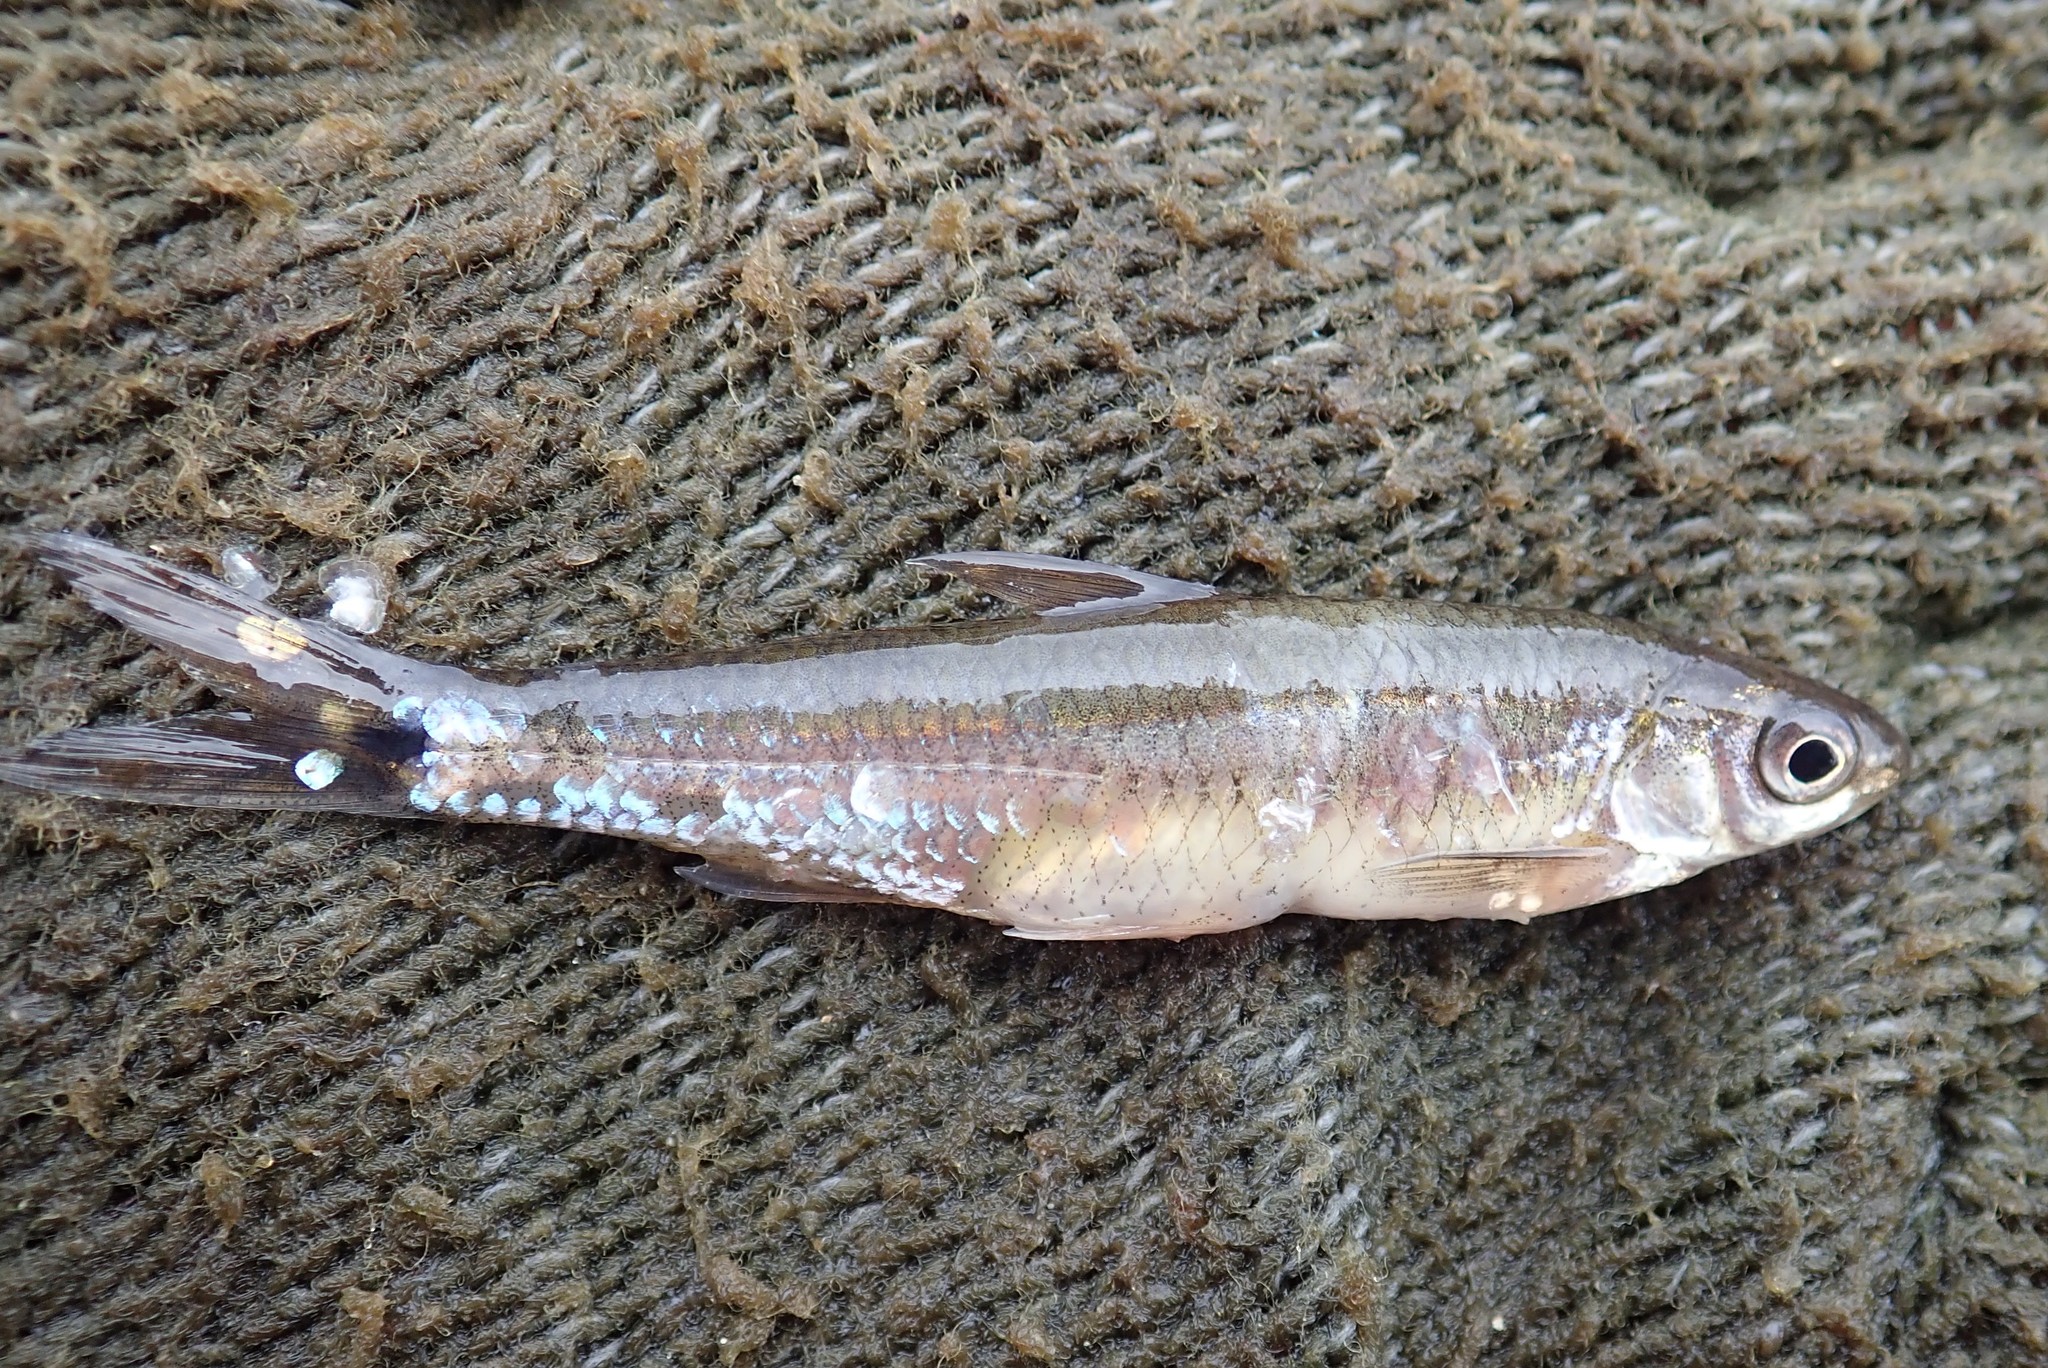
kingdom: Animalia
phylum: Chordata
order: Cypriniformes
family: Cyprinidae
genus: Notropis
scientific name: Notropis
